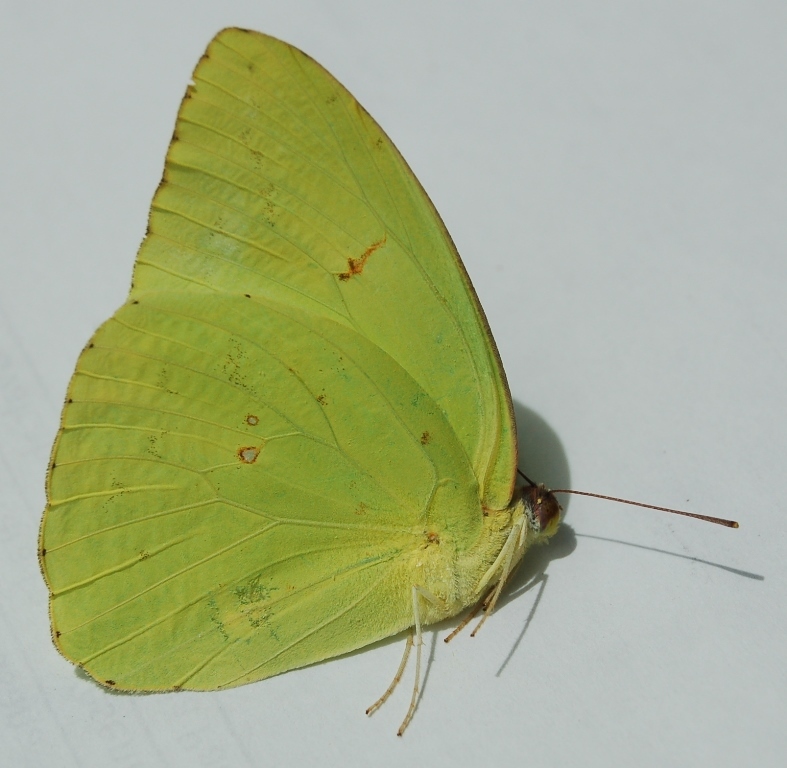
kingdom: Animalia
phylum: Arthropoda
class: Insecta
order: Lepidoptera
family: Pieridae
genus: Phoebis
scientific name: Phoebis marcellina
